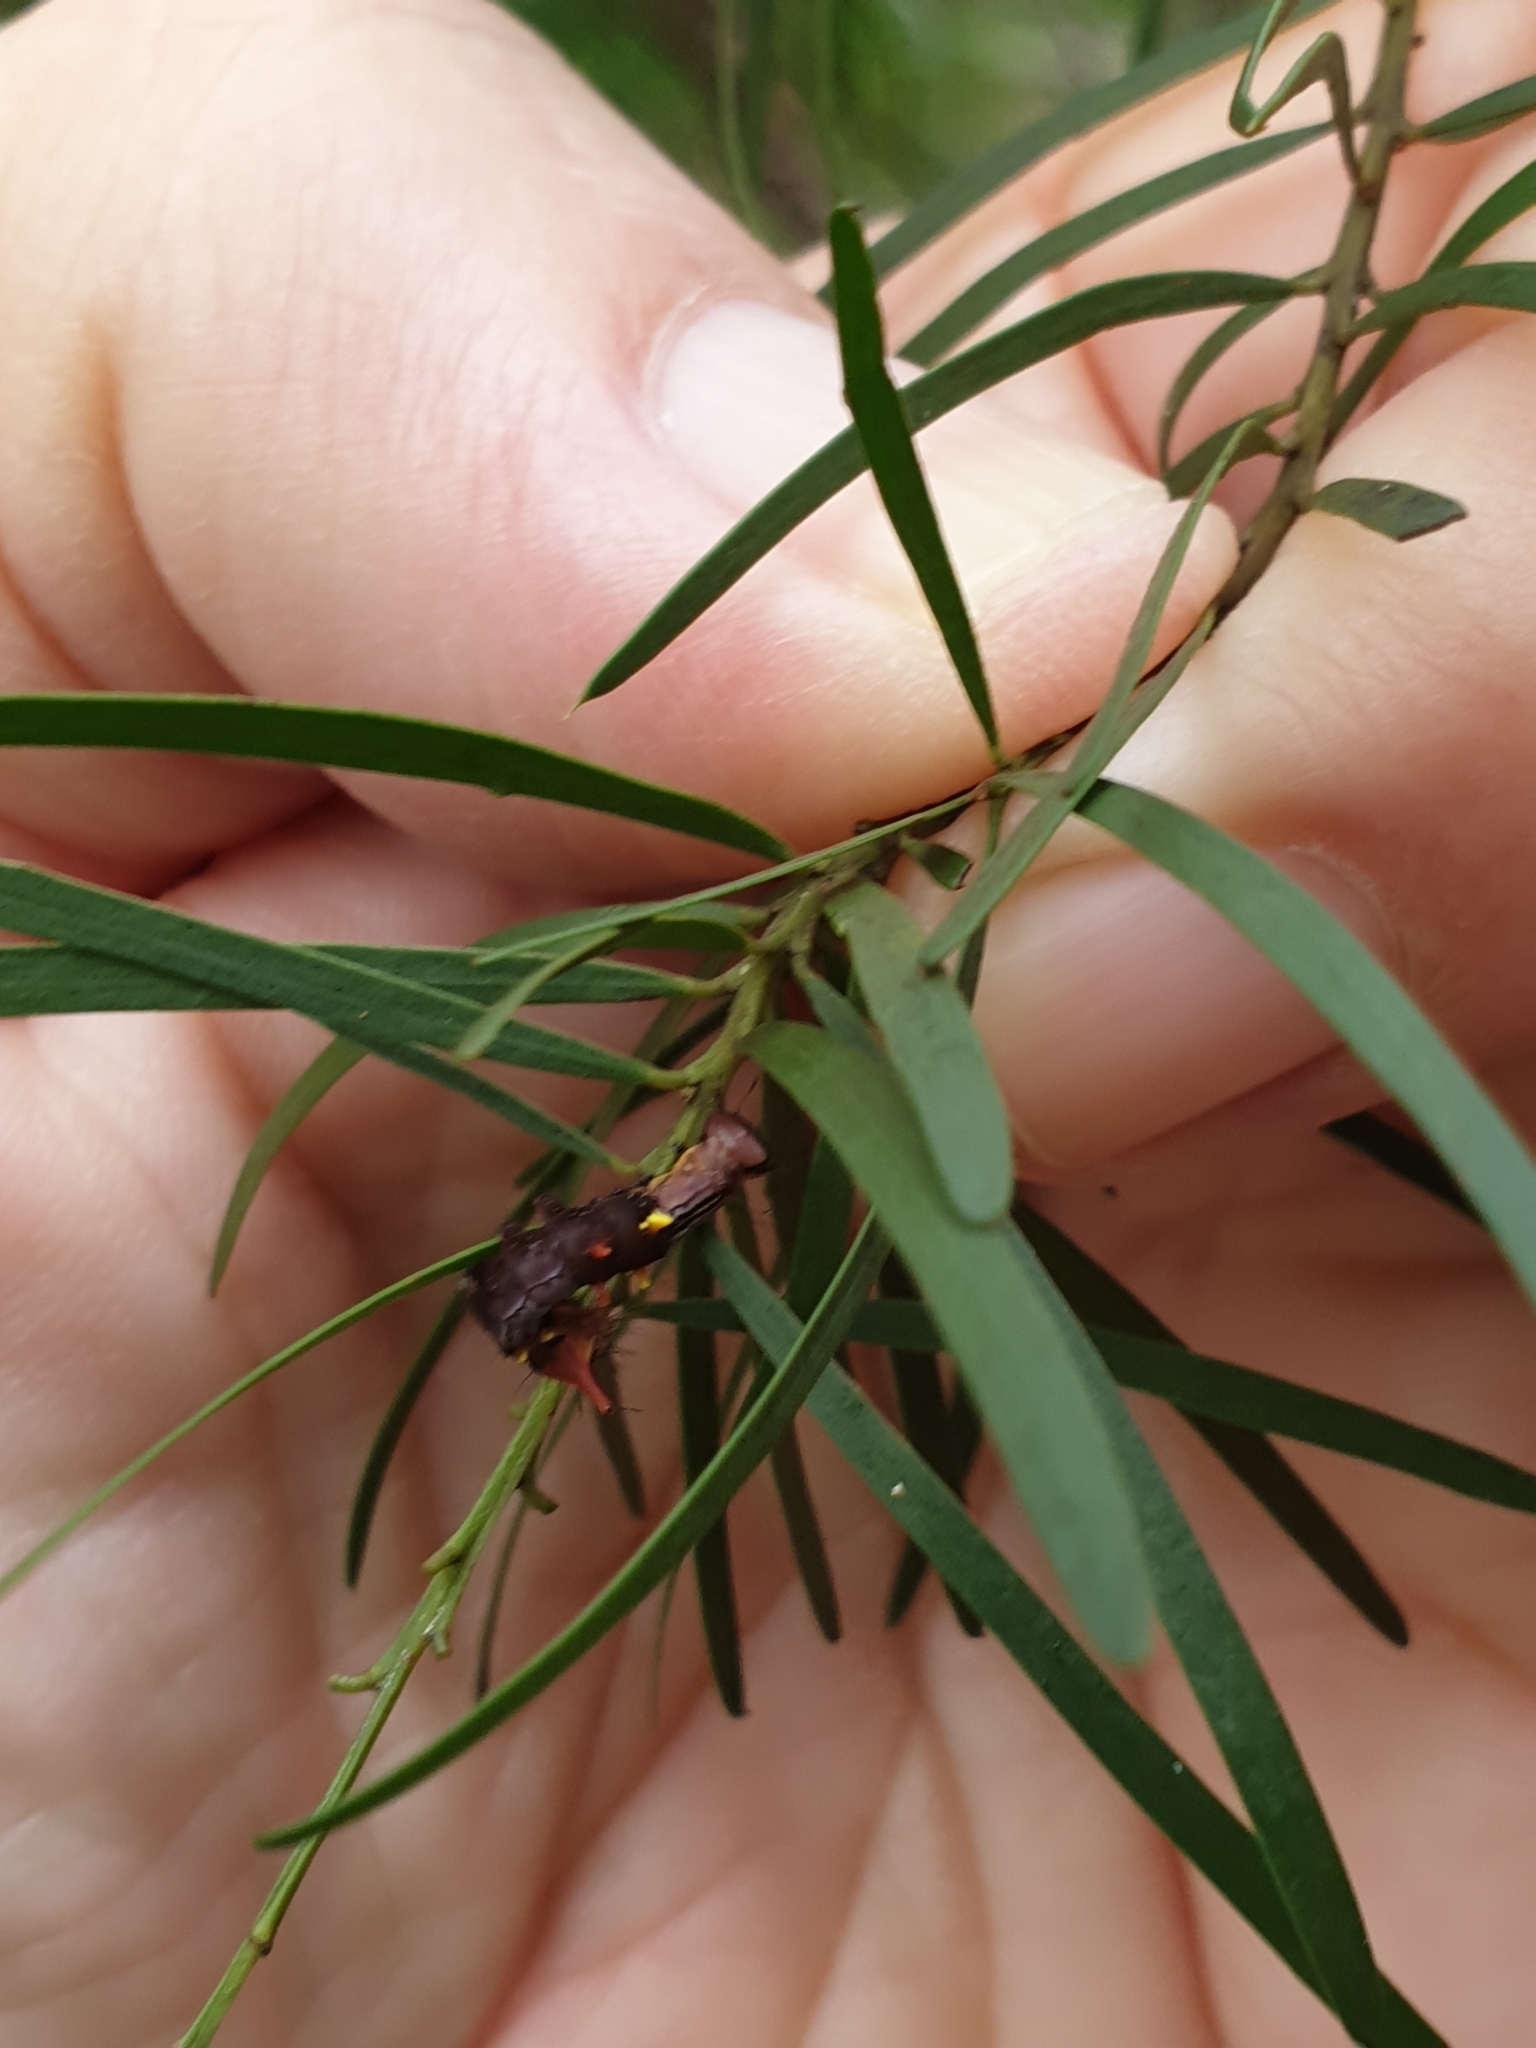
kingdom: Animalia
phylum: Arthropoda
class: Insecta
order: Lepidoptera
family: Notodontidae
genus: Neola
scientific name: Neola semiaurata
